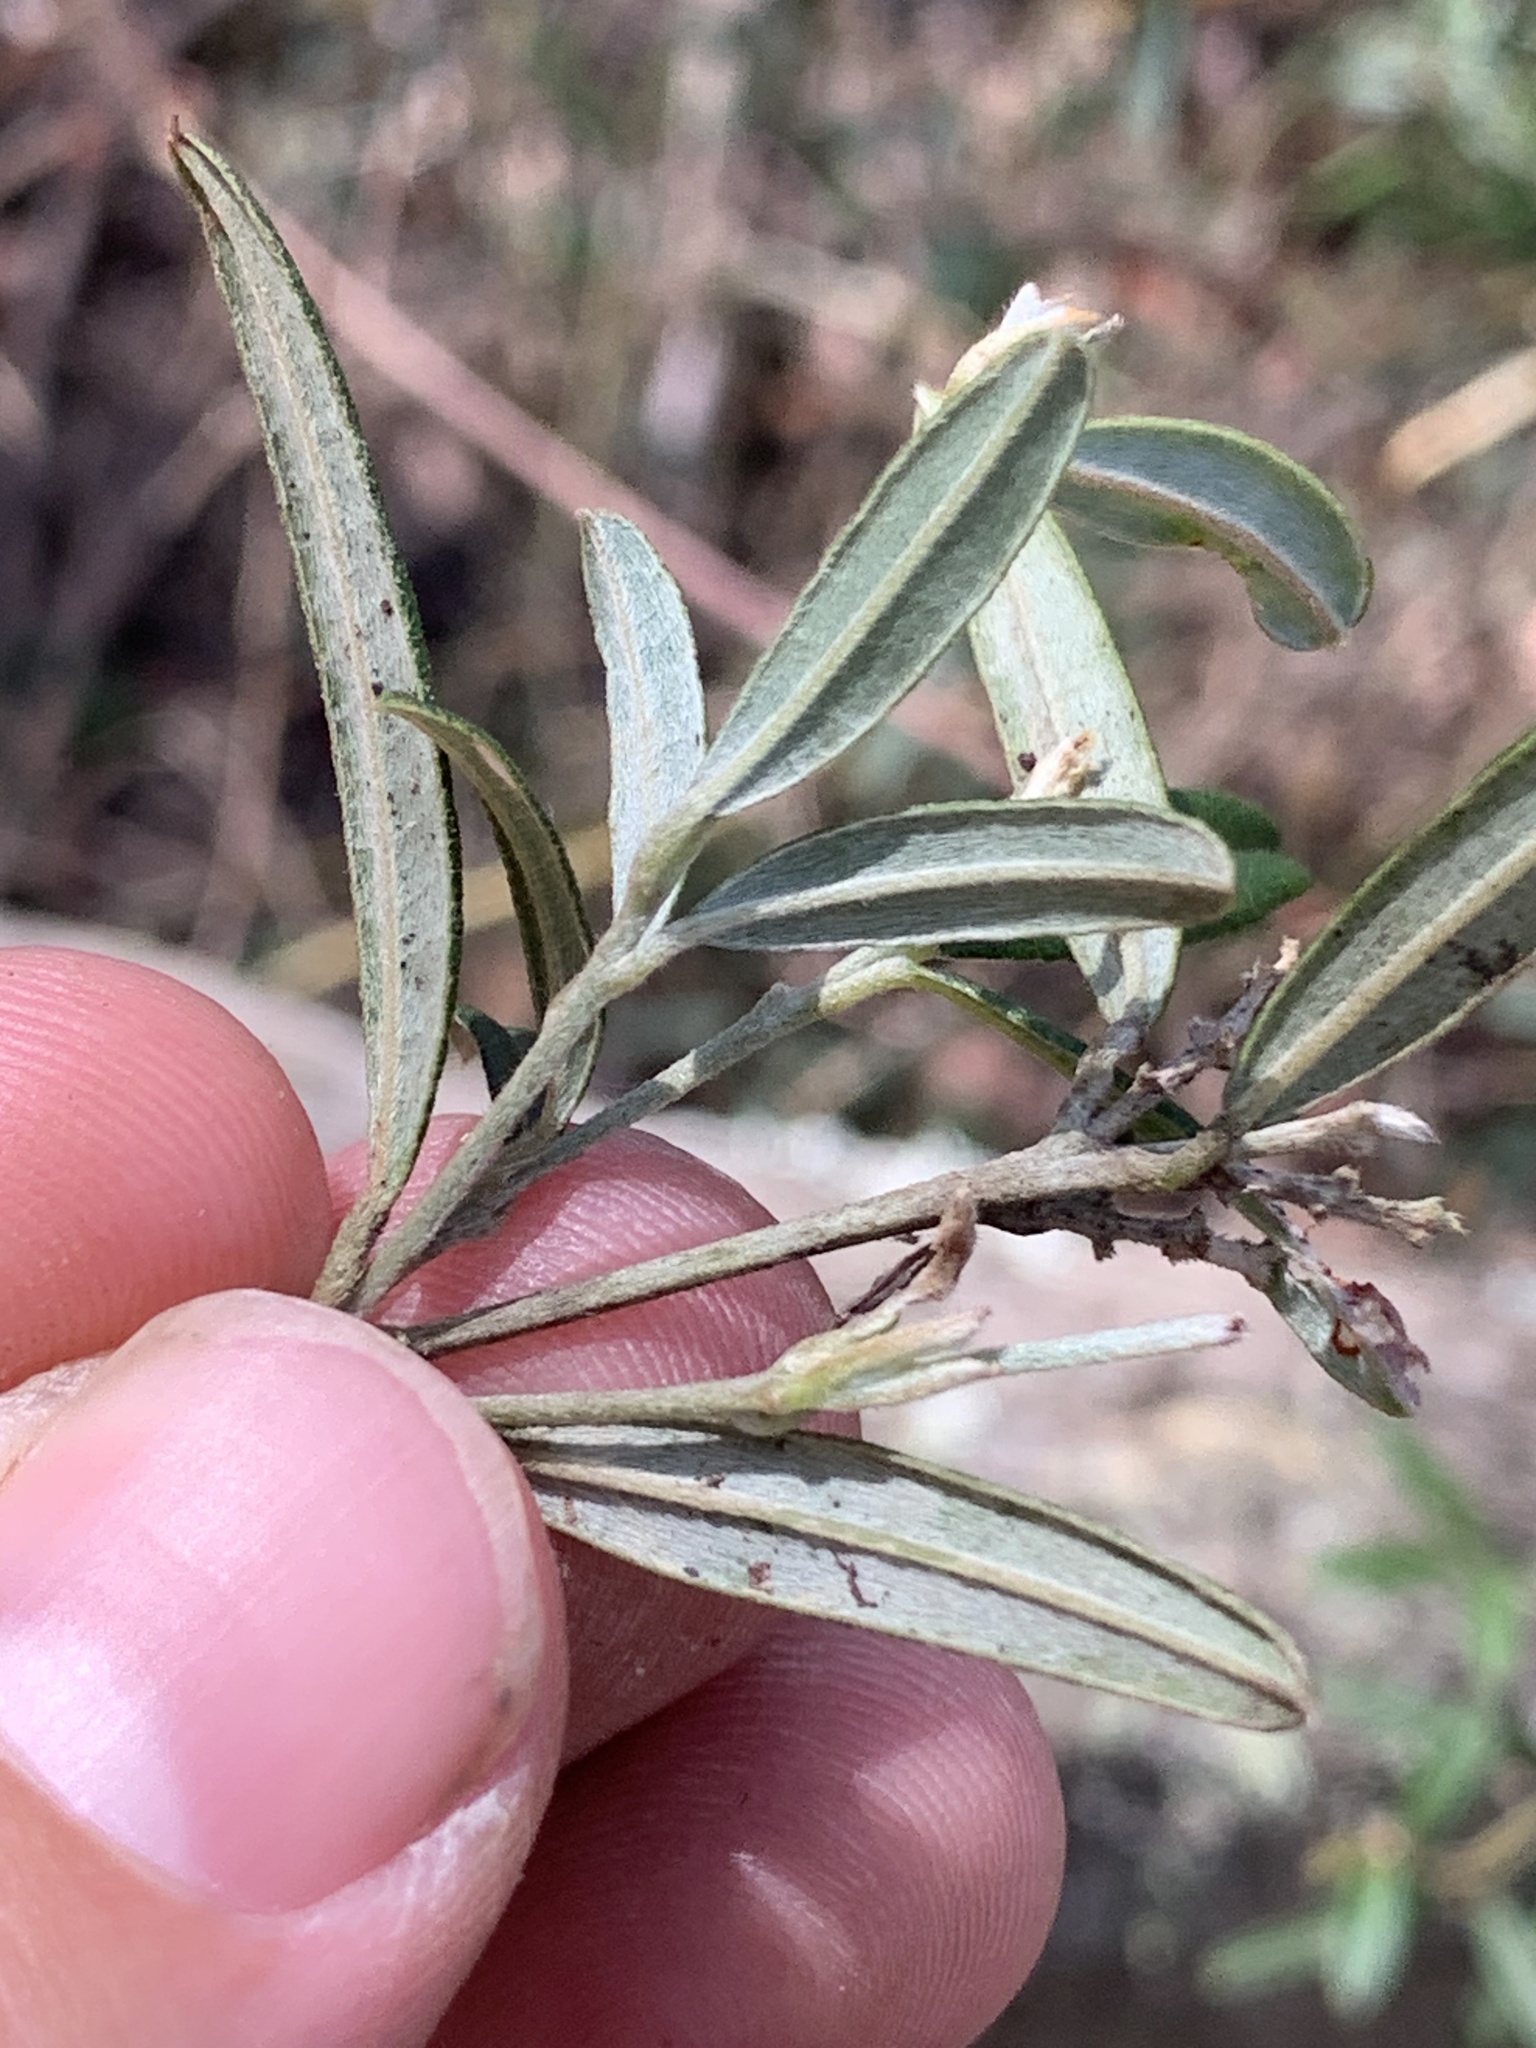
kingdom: Plantae
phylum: Tracheophyta
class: Magnoliopsida
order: Fabales
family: Fabaceae
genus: Oxylobium
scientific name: Oxylobium arborescens
